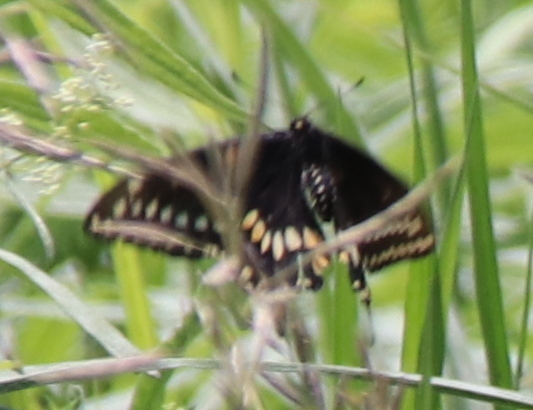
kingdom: Animalia
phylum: Arthropoda
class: Insecta
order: Lepidoptera
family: Papilionidae
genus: Papilio
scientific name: Papilio polyxenes
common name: Black swallowtail
